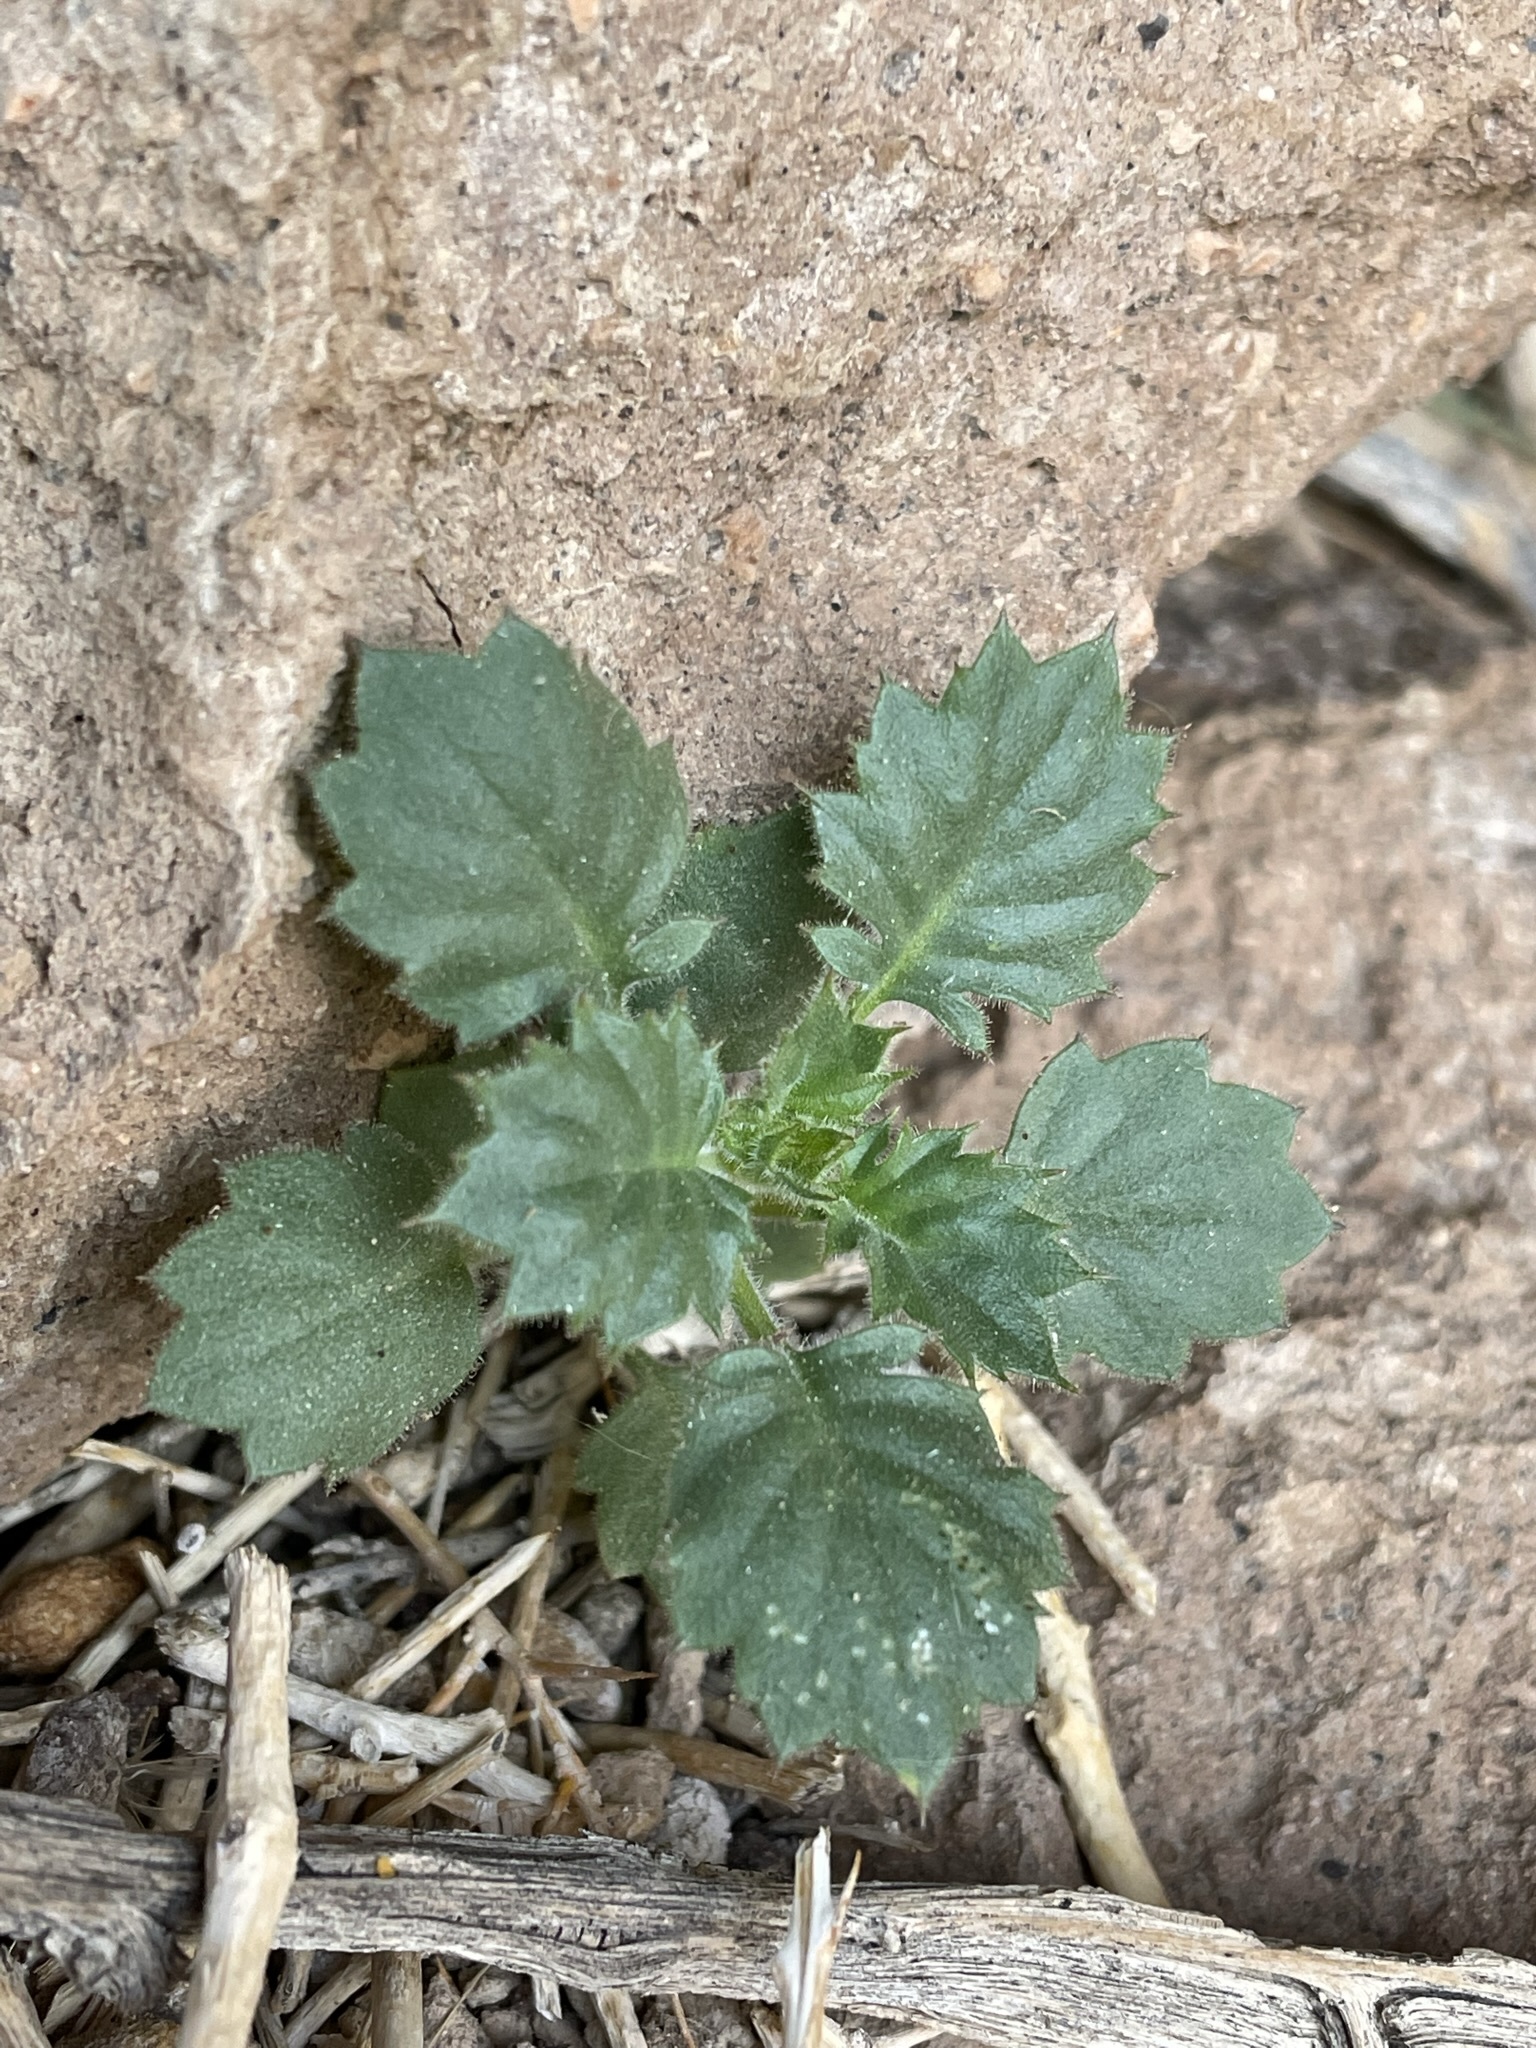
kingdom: Plantae
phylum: Tracheophyta
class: Magnoliopsida
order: Ericales
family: Polemoniaceae
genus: Aliciella
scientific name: Aliciella latifolia
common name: Broad-leaf gilia
